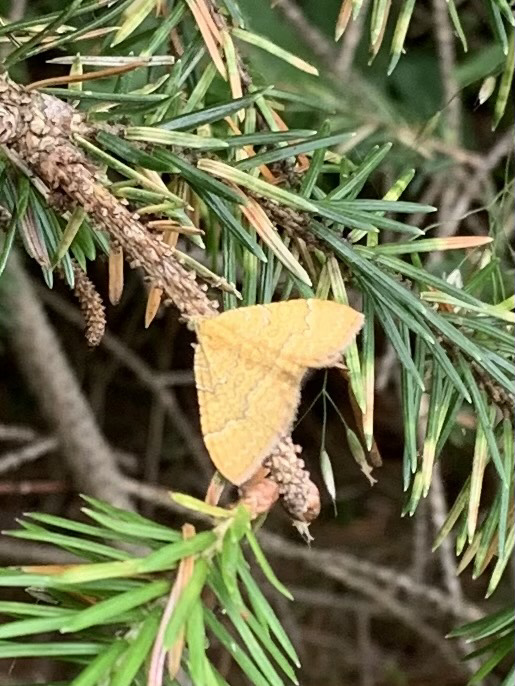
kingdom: Animalia
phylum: Arthropoda
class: Insecta
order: Lepidoptera
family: Geometridae
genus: Camptogramma
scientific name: Camptogramma bilineata
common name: Yellow shell
